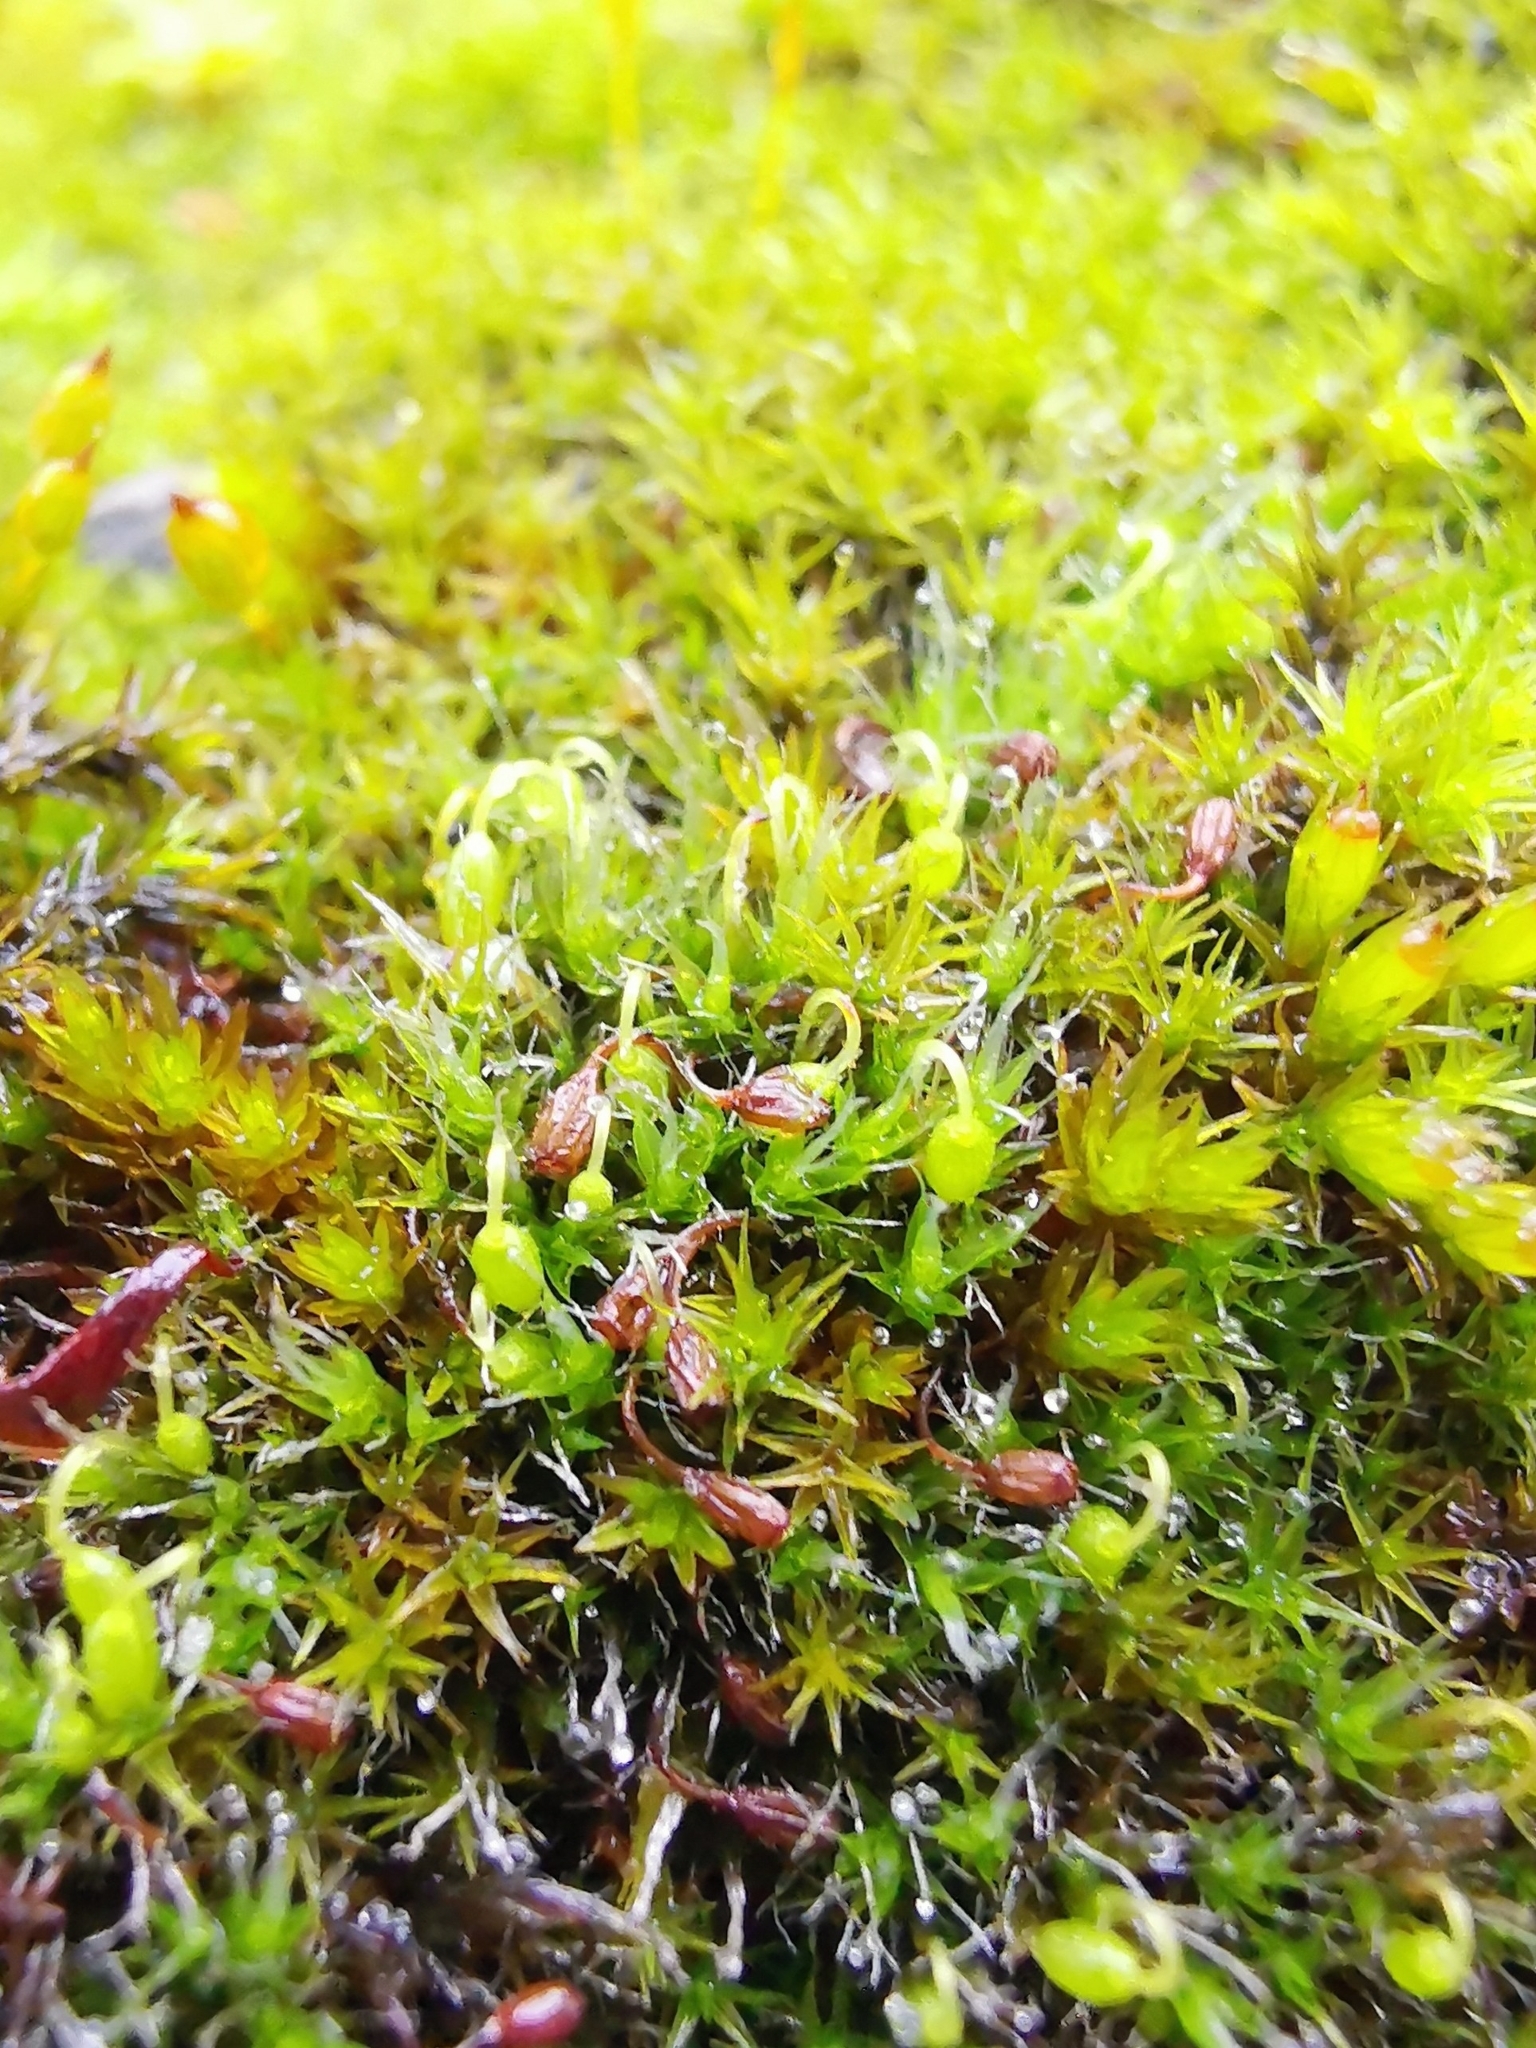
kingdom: Plantae
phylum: Bryophyta
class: Bryopsida
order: Grimmiales
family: Grimmiaceae
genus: Grimmia
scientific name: Grimmia pulvinata
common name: Grey-cushioned grimmia
